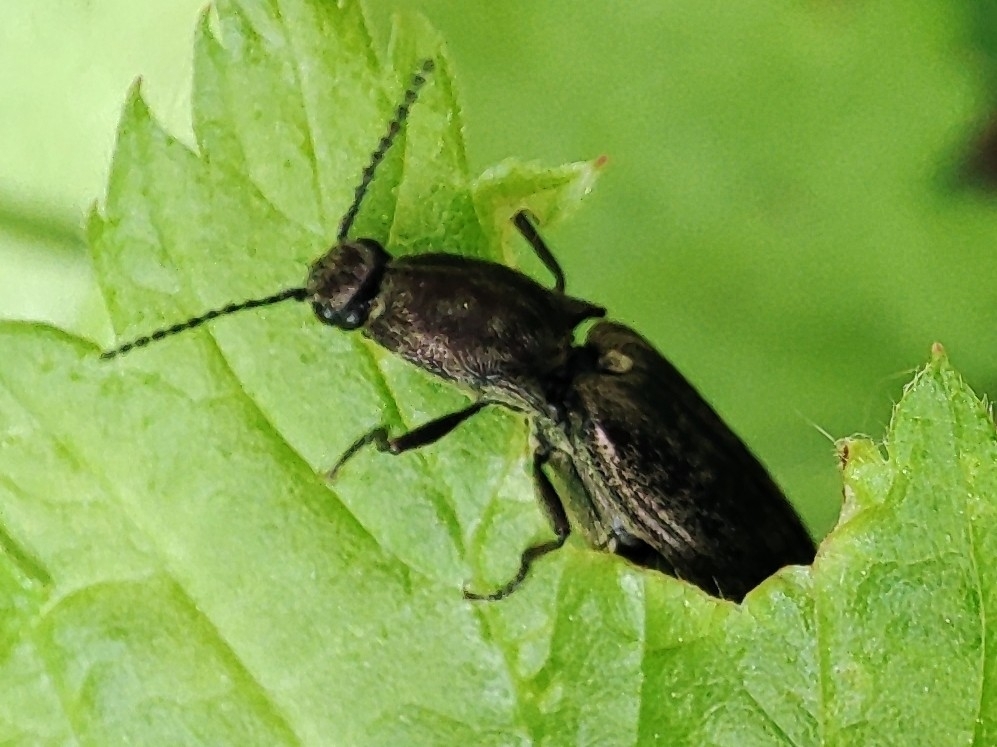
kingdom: Animalia
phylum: Arthropoda
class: Insecta
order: Coleoptera
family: Elateridae
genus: Actenicerus
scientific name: Actenicerus sjaelandicus
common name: Marsh click beetle
